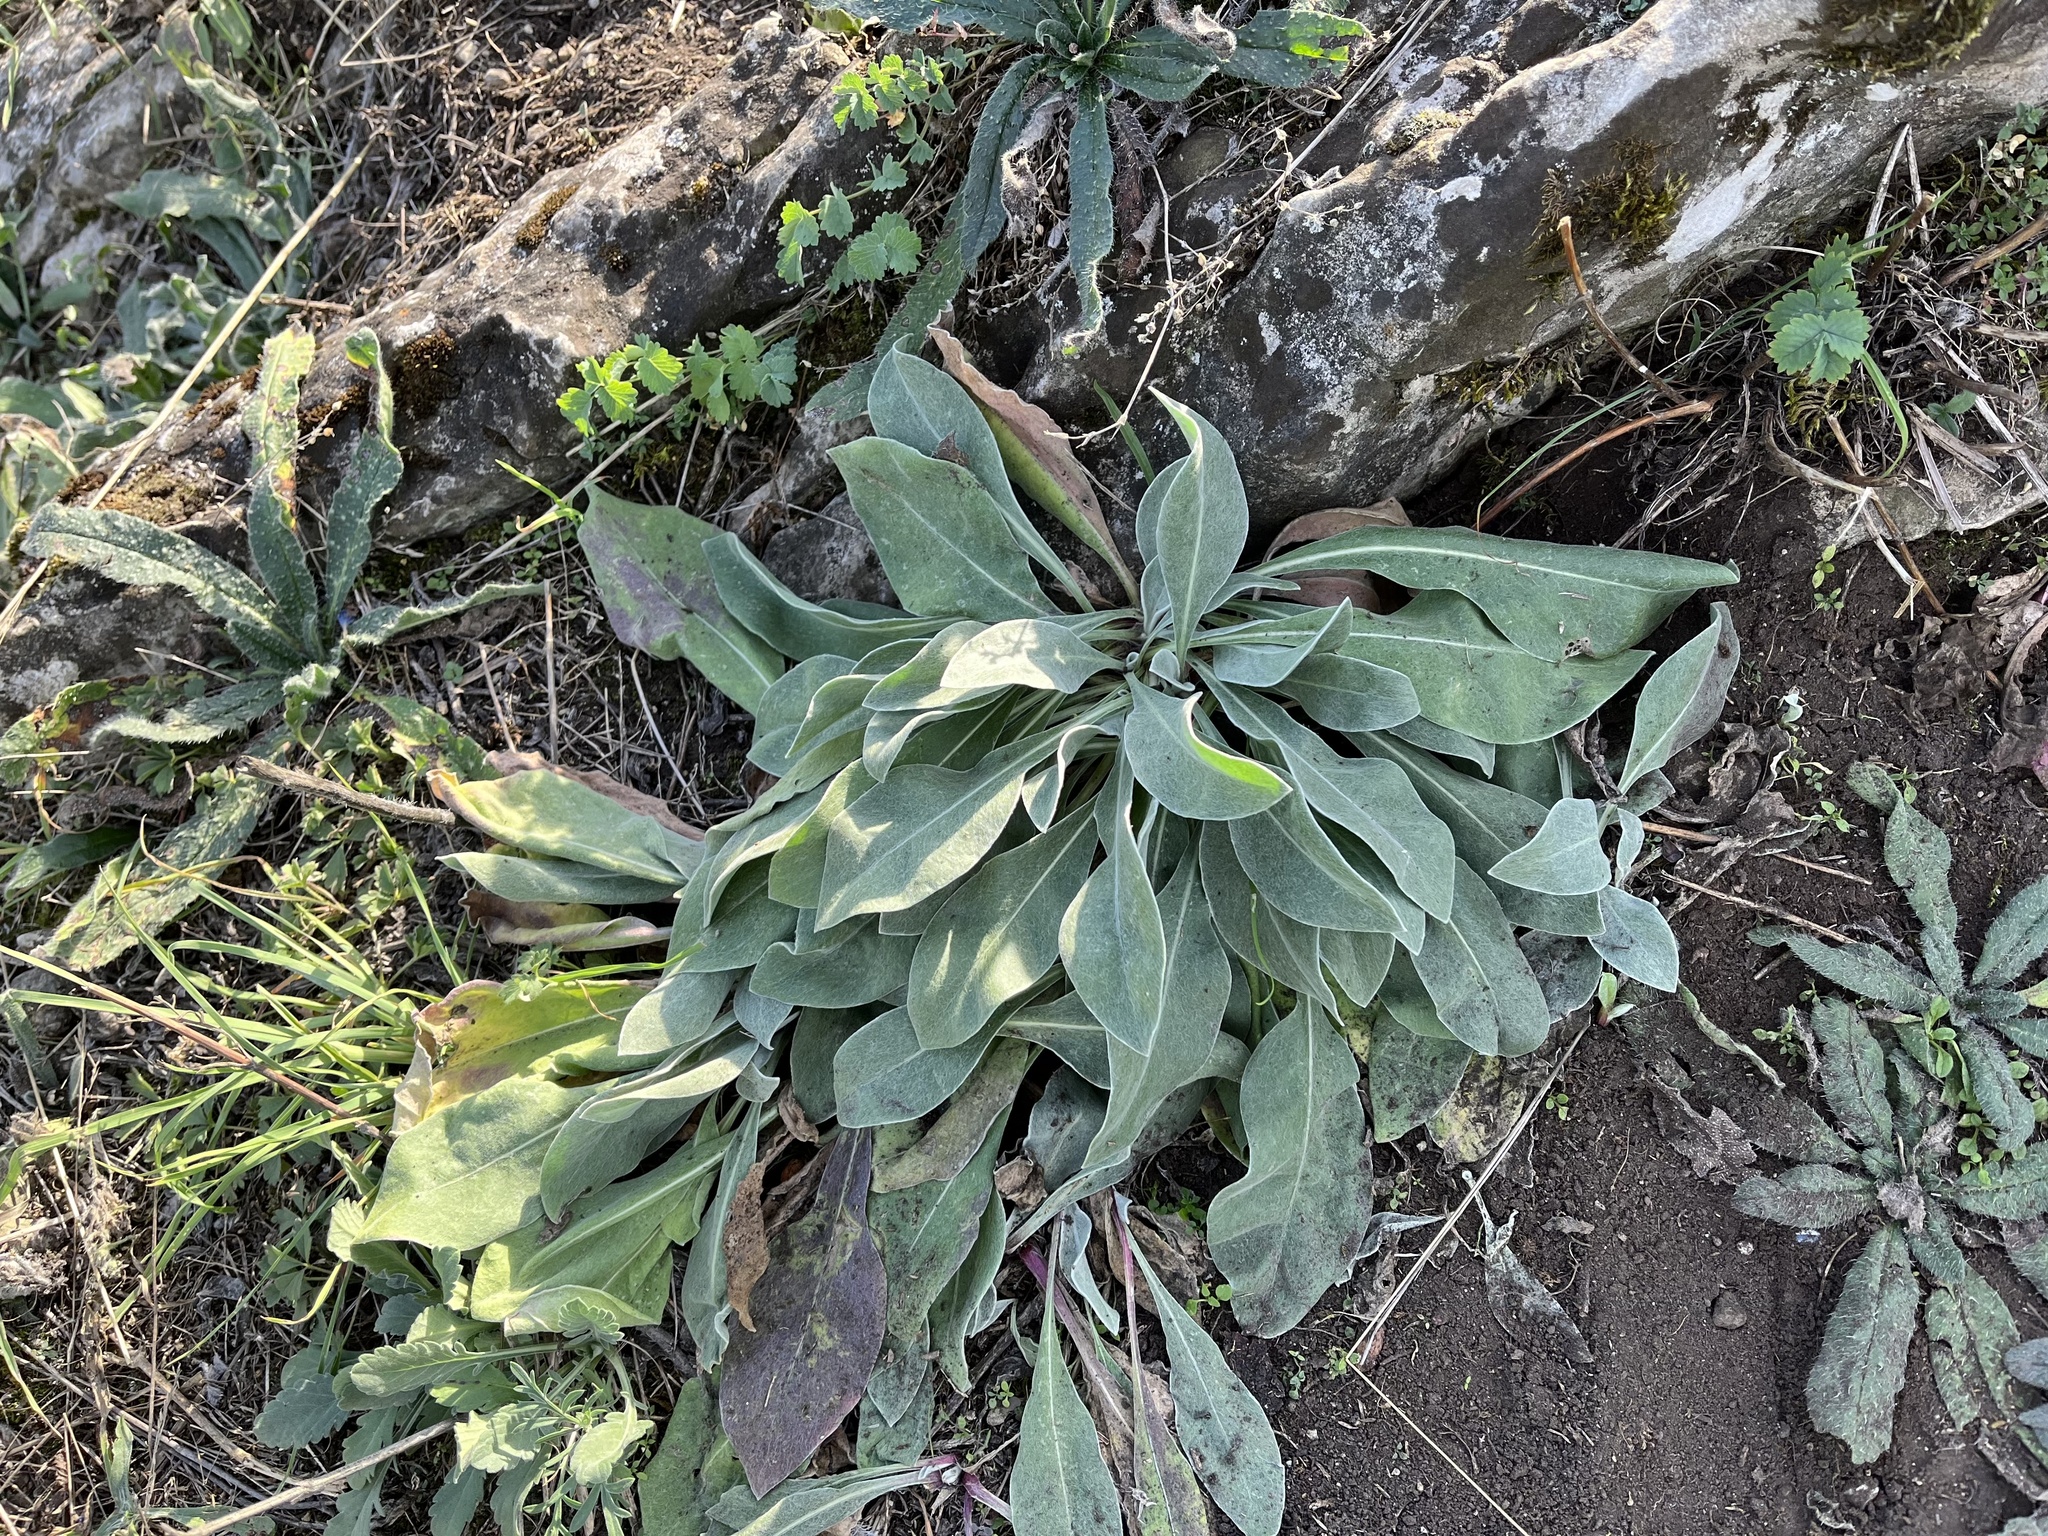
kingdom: Plantae
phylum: Tracheophyta
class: Magnoliopsida
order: Brassicales
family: Brassicaceae
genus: Aurinia
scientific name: Aurinia saxatilis
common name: Golden-tuft alyssum
